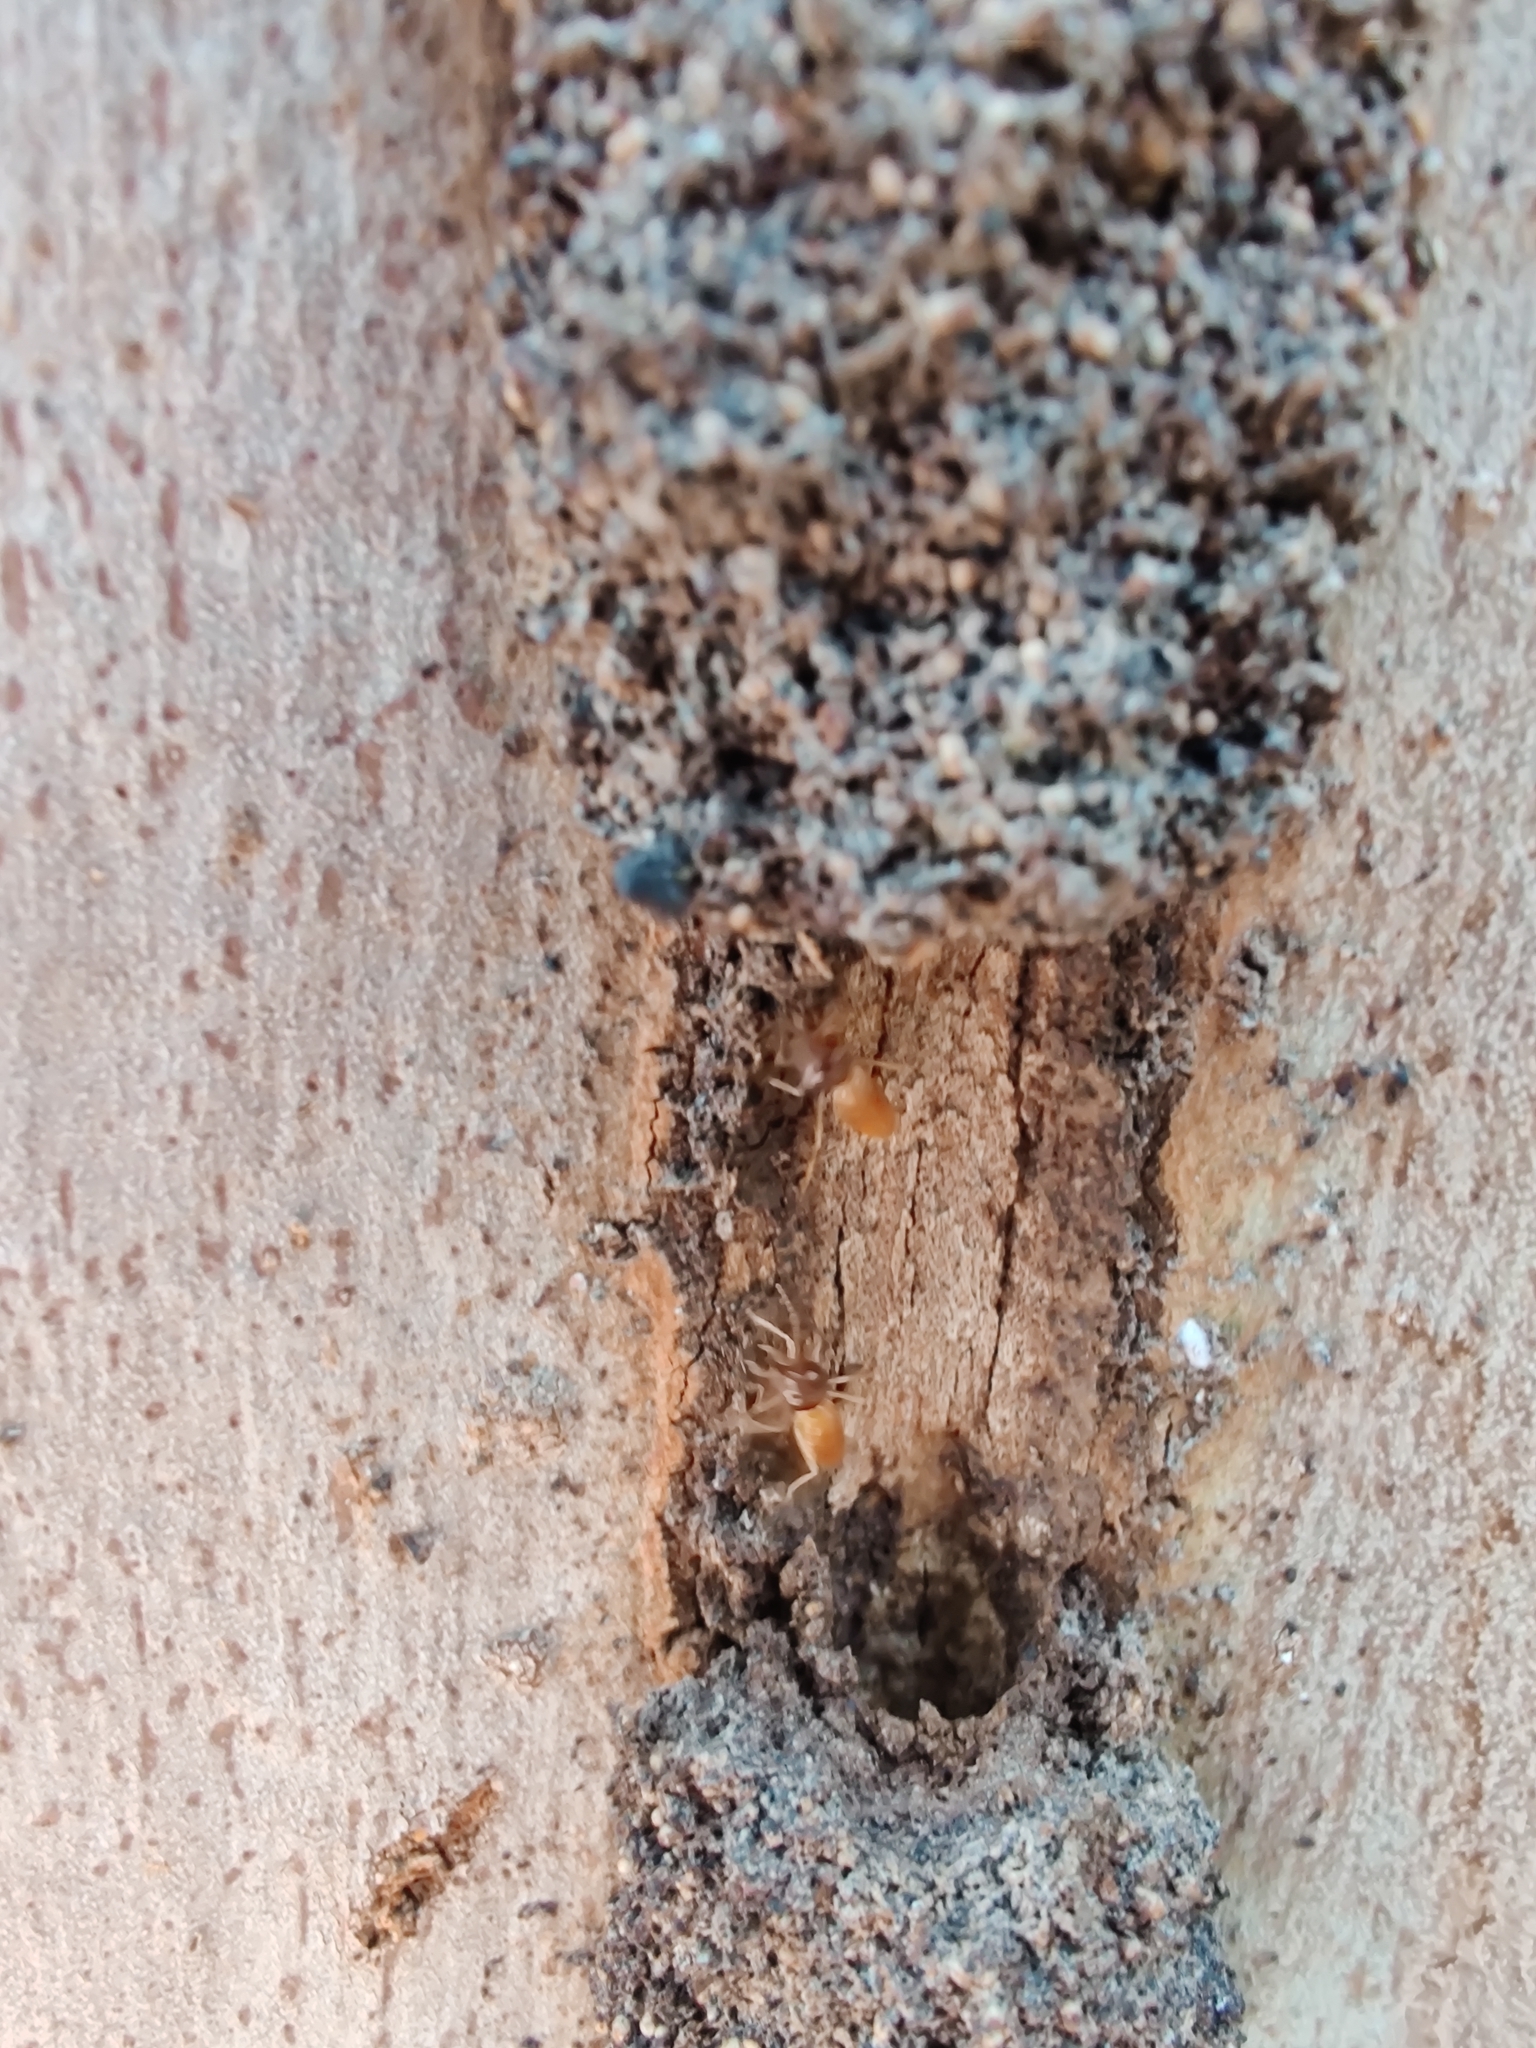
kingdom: Animalia
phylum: Arthropoda
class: Insecta
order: Blattodea
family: Termitidae
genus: Nasutitermes
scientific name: Nasutitermes walkeri
